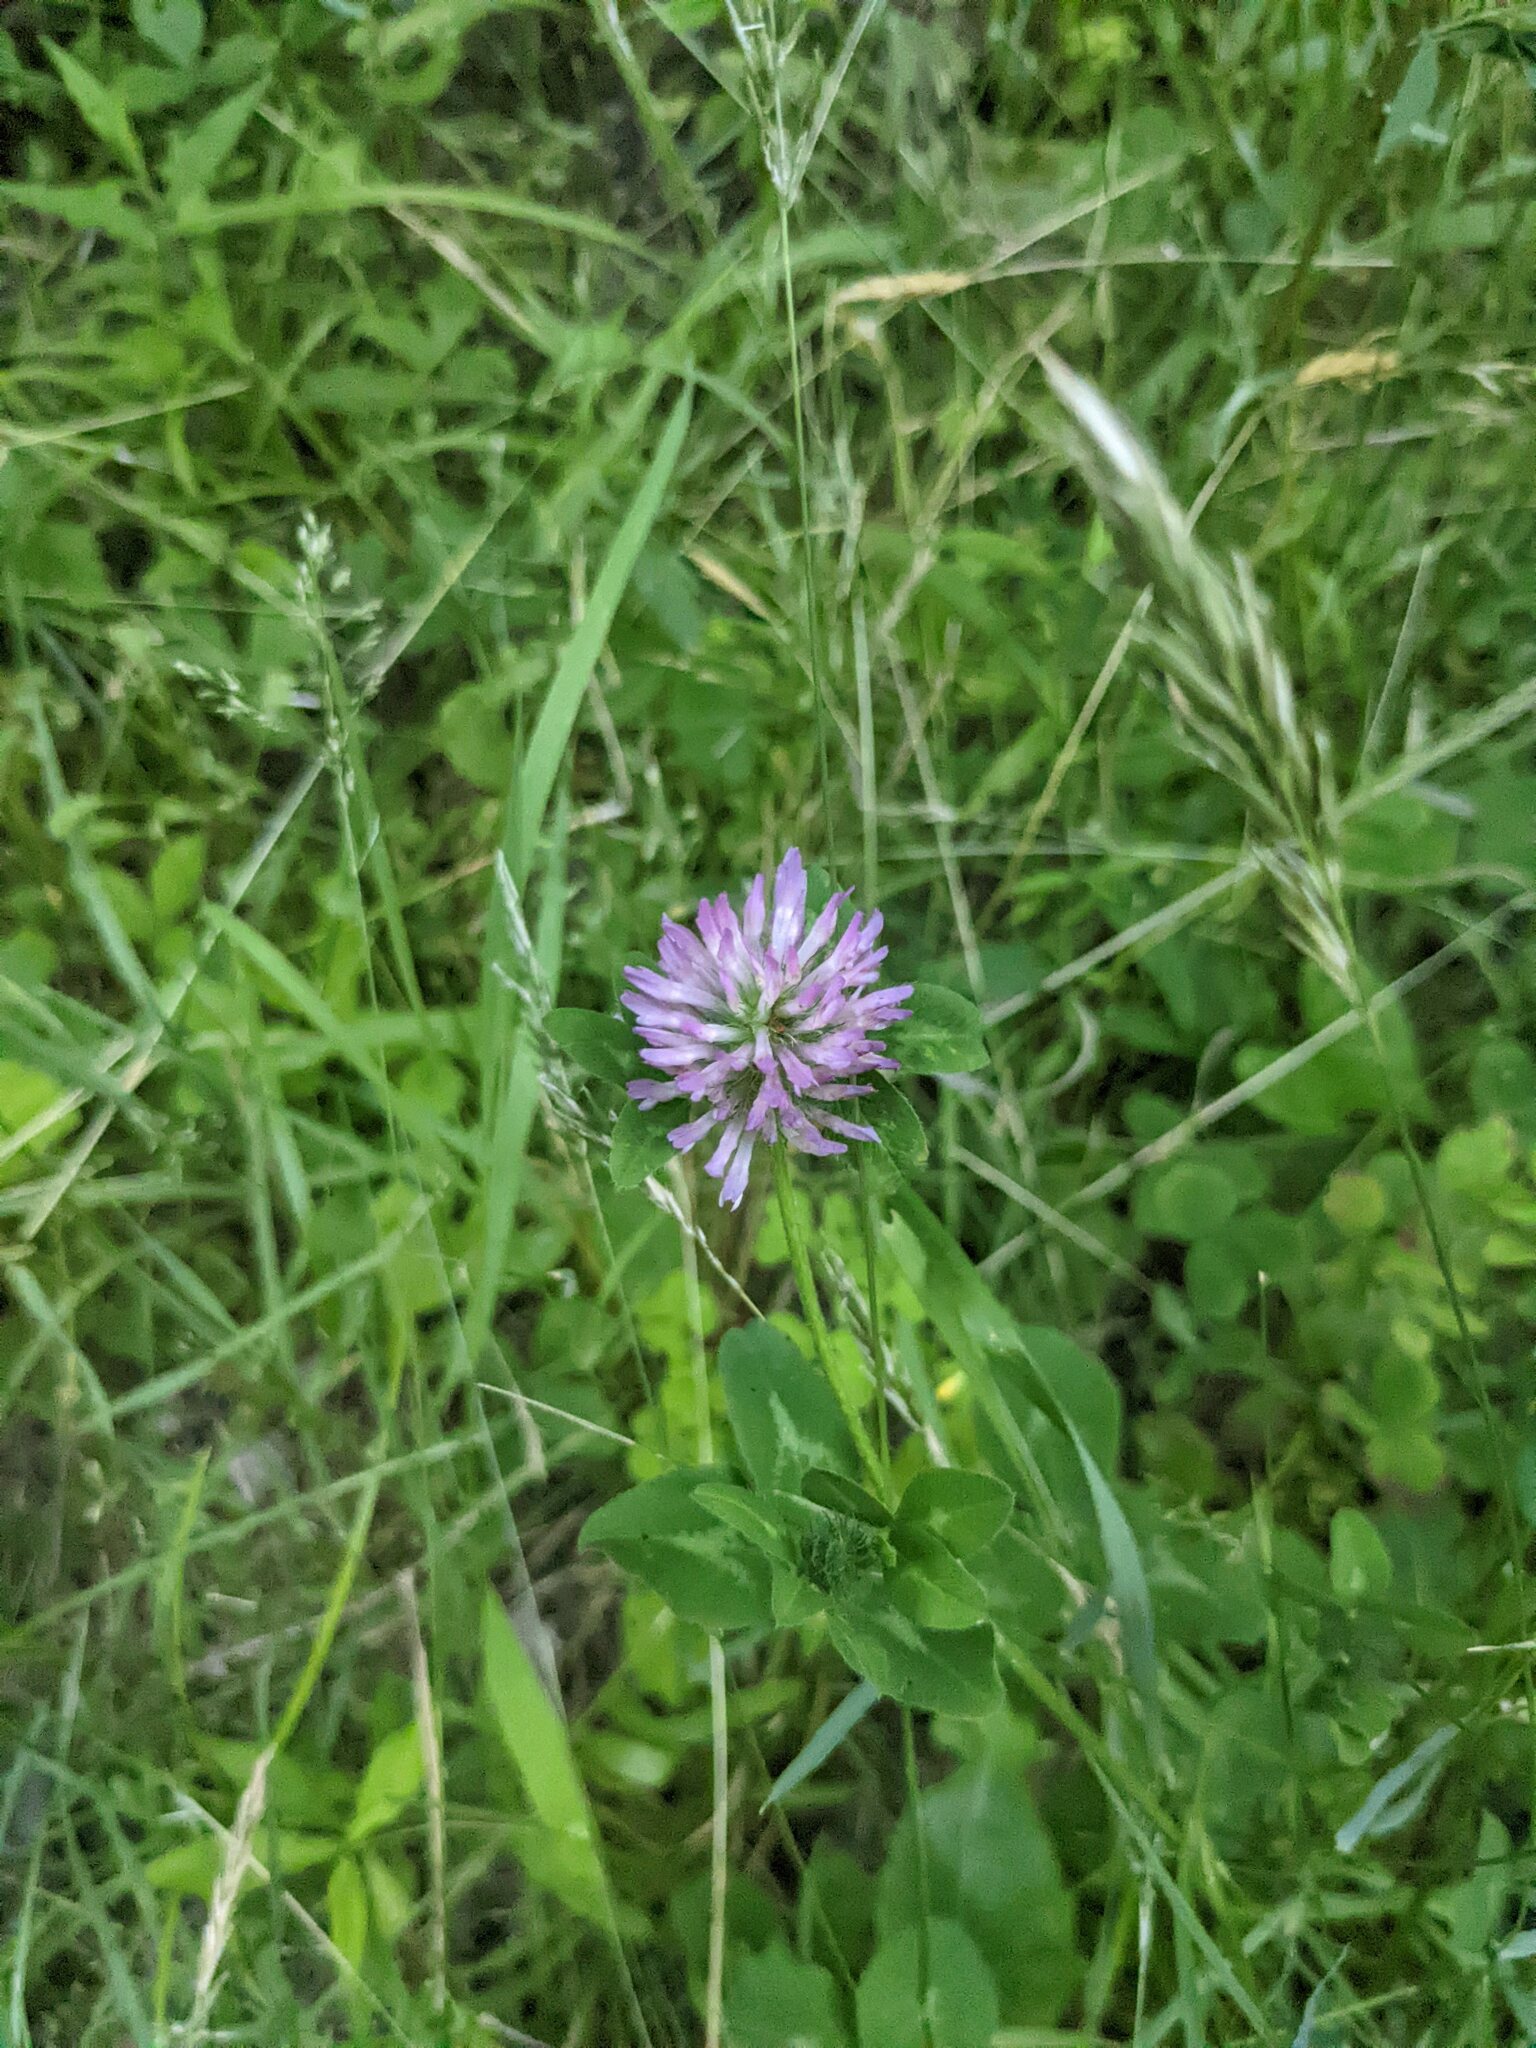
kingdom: Plantae
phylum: Tracheophyta
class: Magnoliopsida
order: Fabales
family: Fabaceae
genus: Trifolium
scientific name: Trifolium pratense
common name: Red clover
